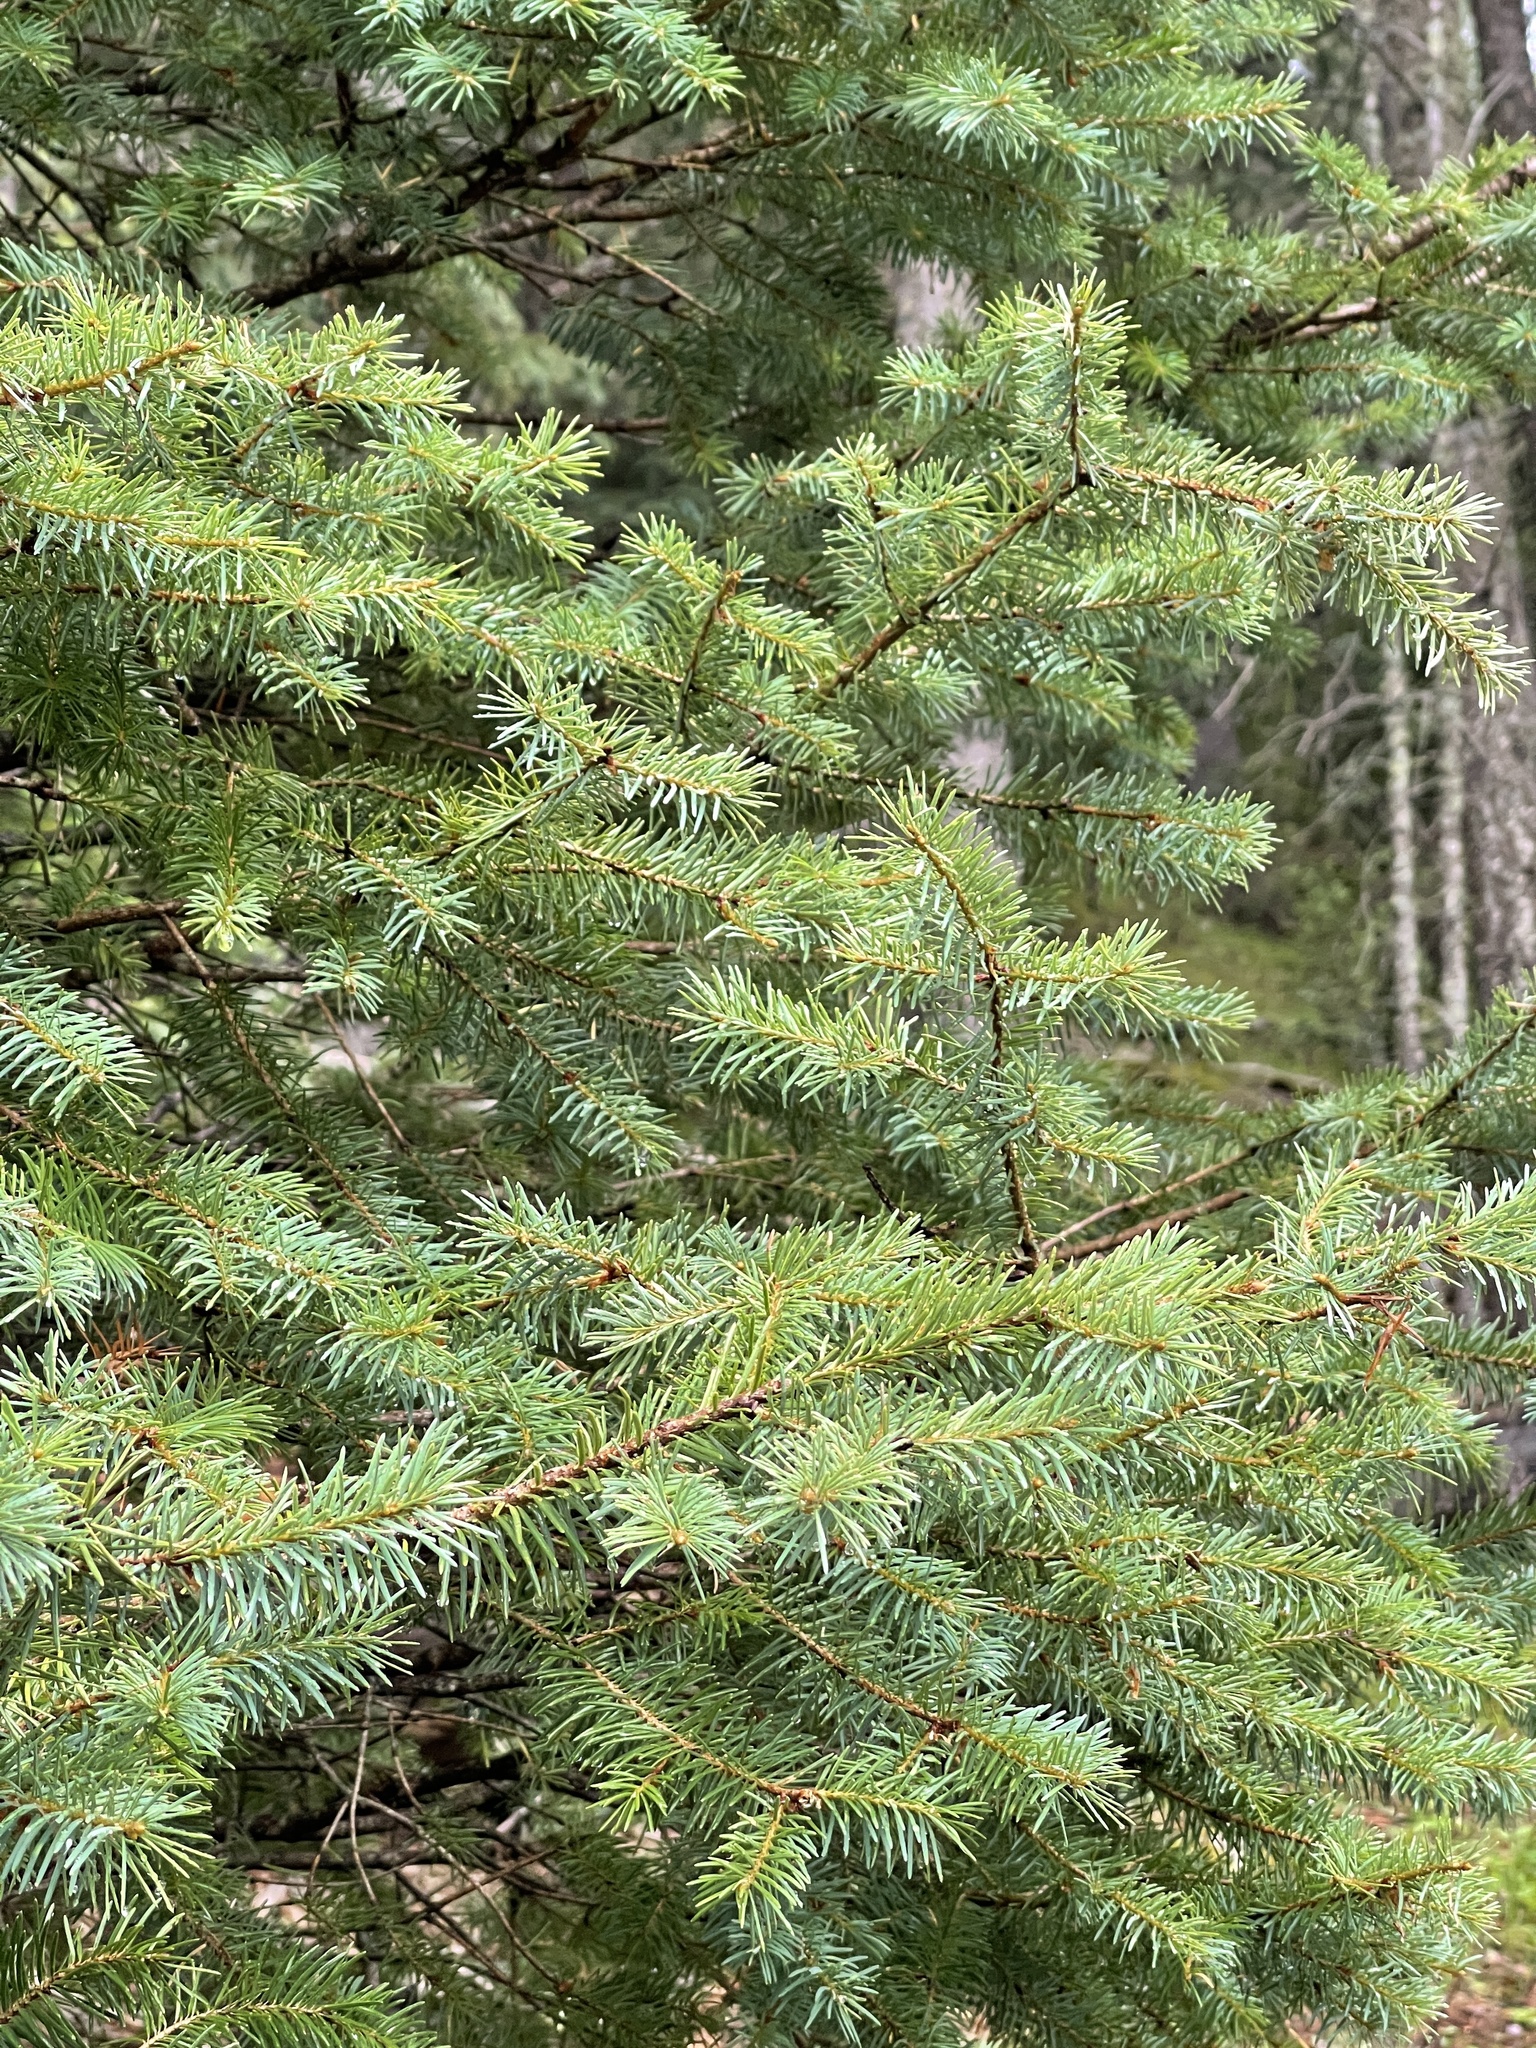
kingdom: Plantae
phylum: Tracheophyta
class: Pinopsida
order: Pinales
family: Pinaceae
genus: Pseudotsuga
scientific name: Pseudotsuga menziesii
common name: Douglas fir
